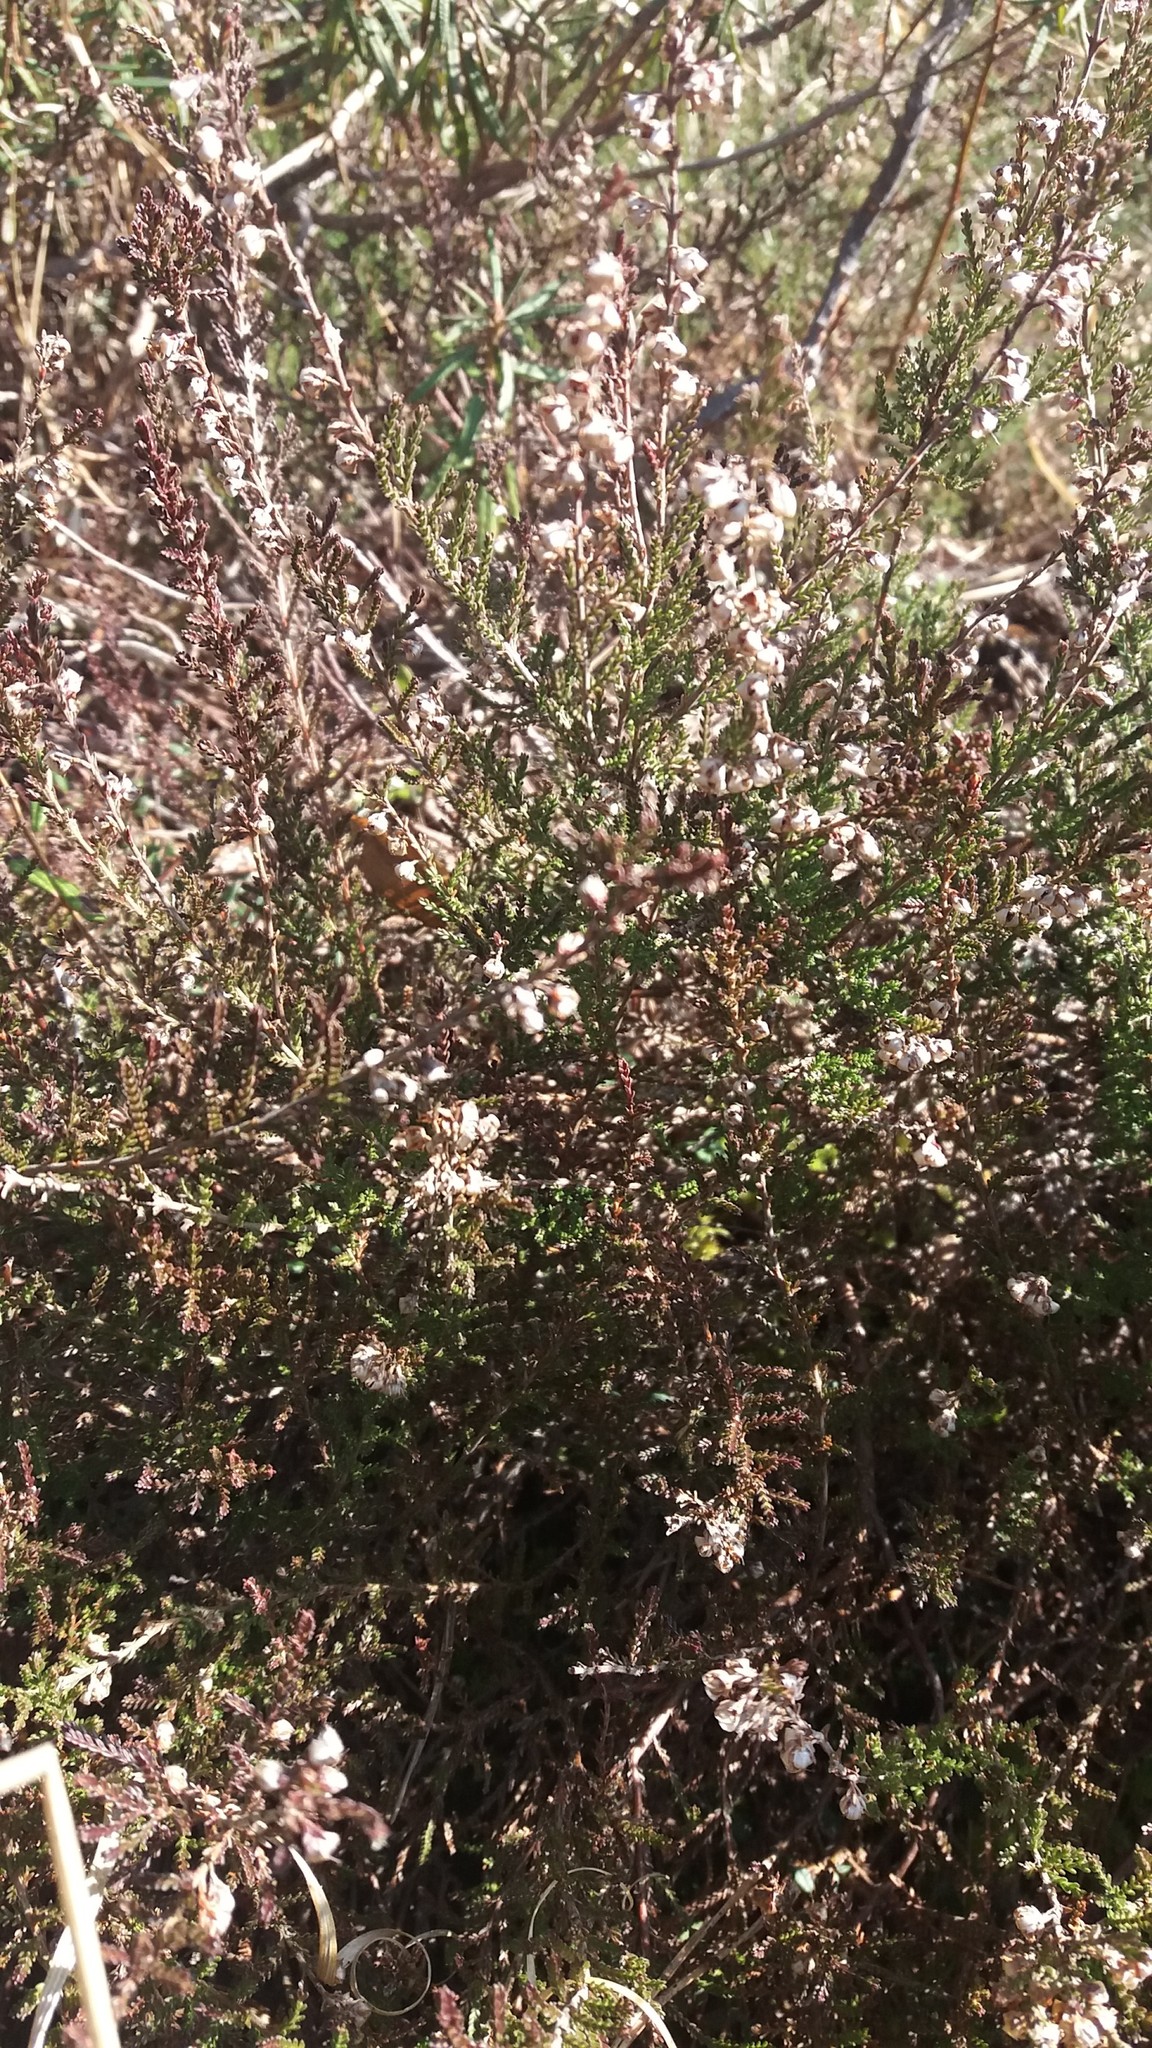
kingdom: Plantae
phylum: Tracheophyta
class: Magnoliopsida
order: Ericales
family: Ericaceae
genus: Calluna
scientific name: Calluna vulgaris
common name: Heather
